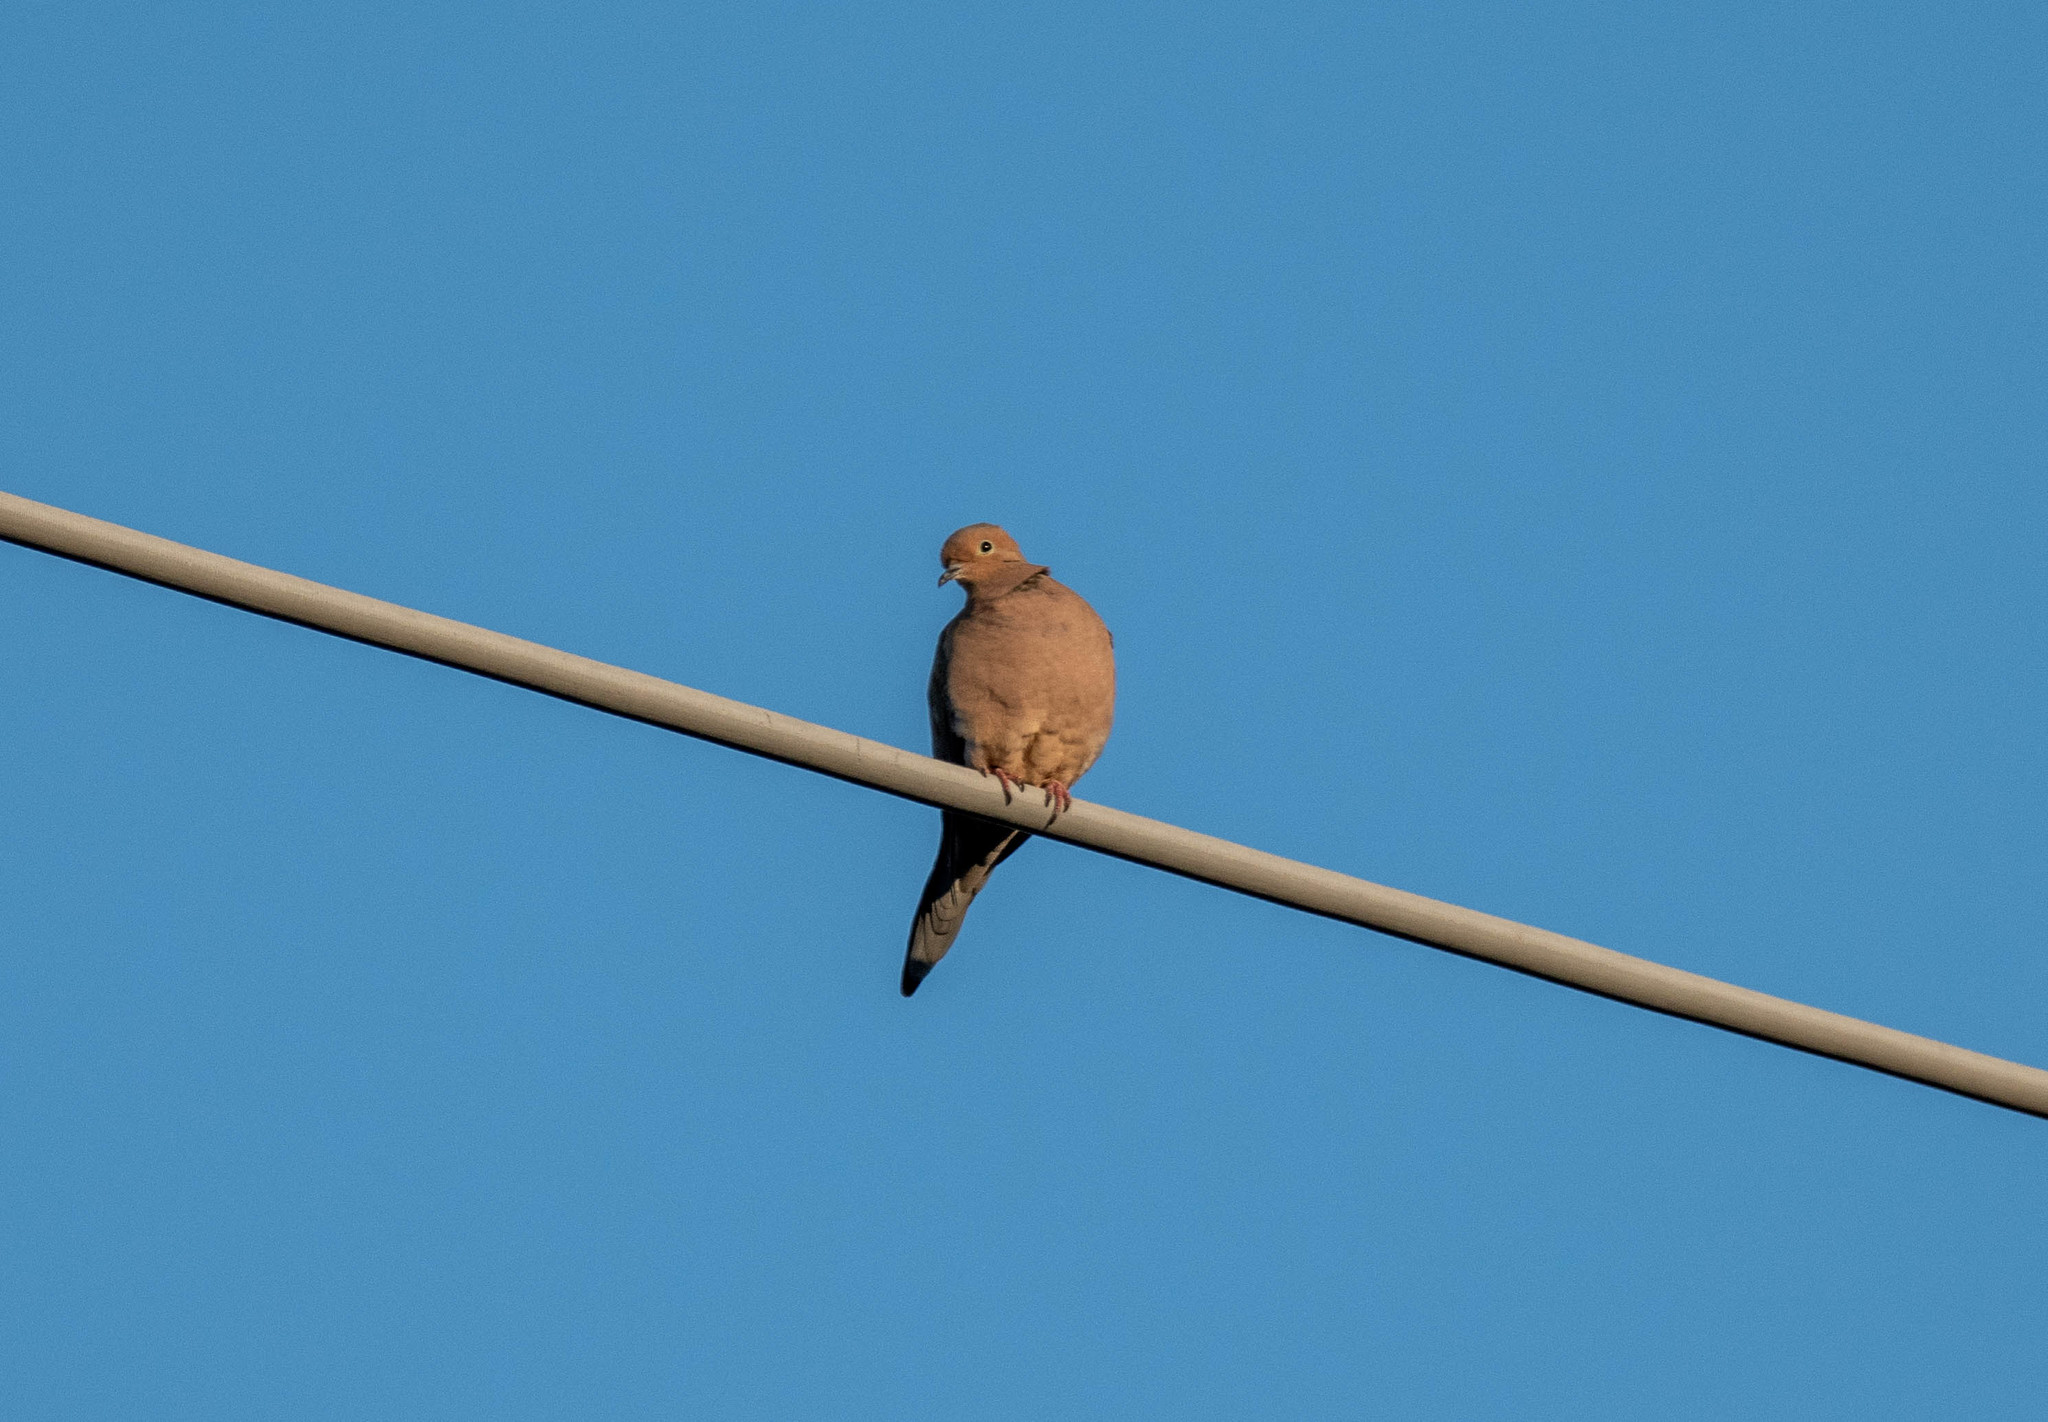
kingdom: Animalia
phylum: Chordata
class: Aves
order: Columbiformes
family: Columbidae
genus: Zenaida
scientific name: Zenaida macroura
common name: Mourning dove
